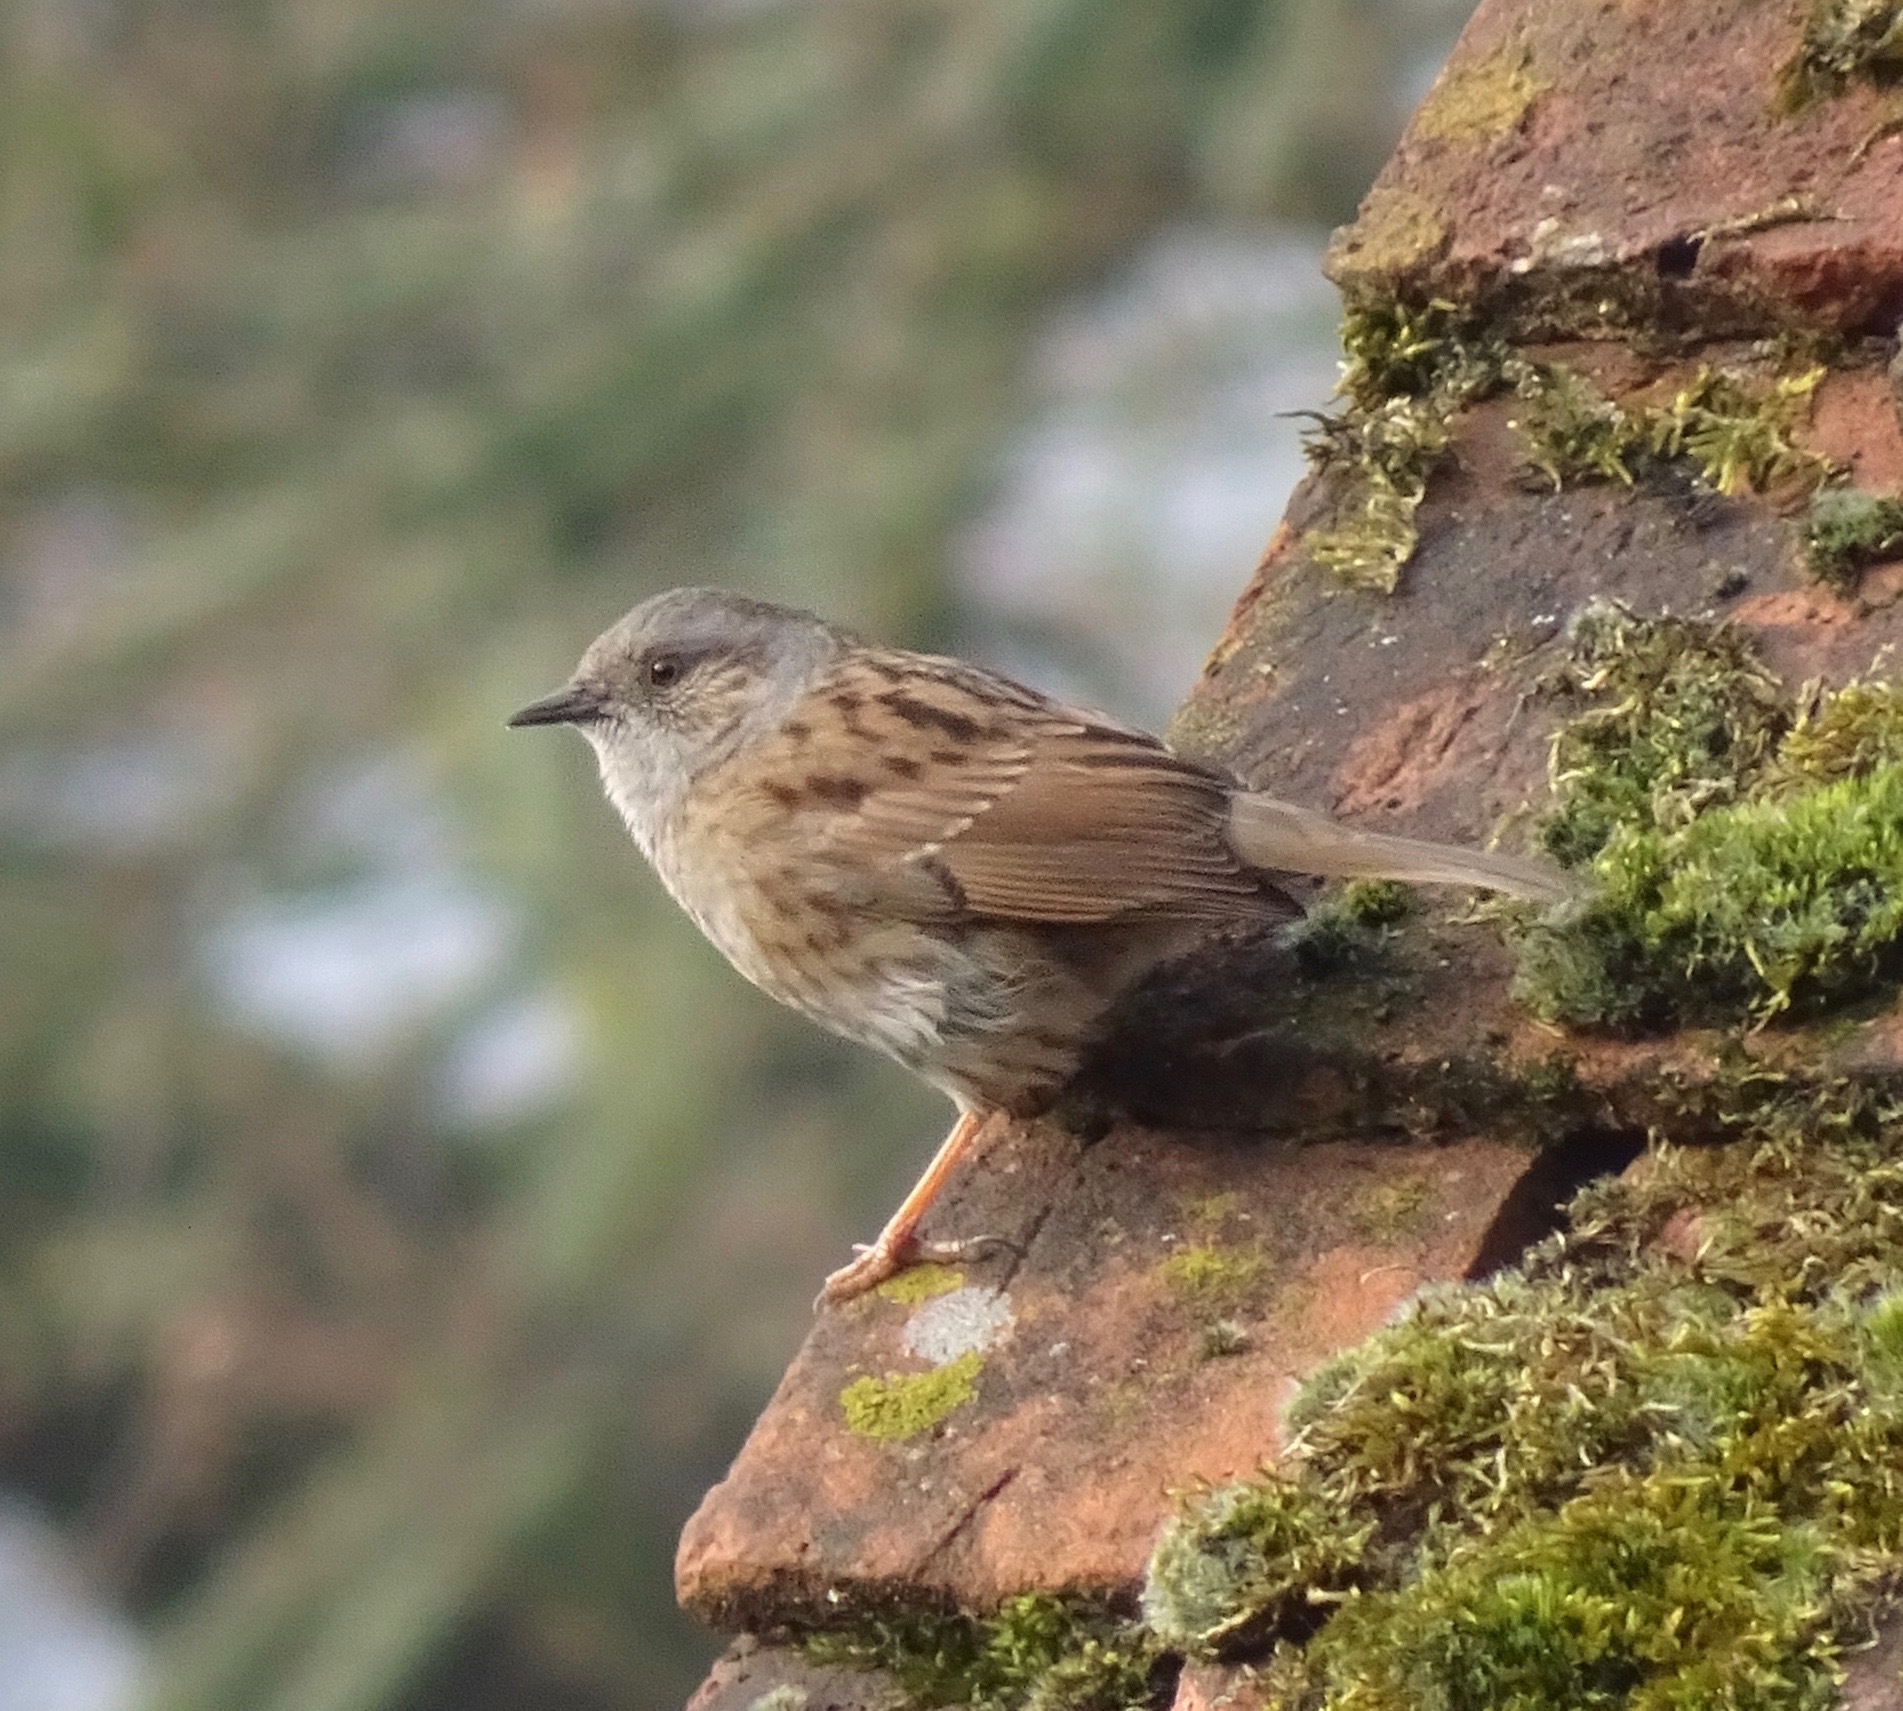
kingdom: Animalia
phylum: Chordata
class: Aves
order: Passeriformes
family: Prunellidae
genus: Prunella
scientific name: Prunella modularis
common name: Dunnock
